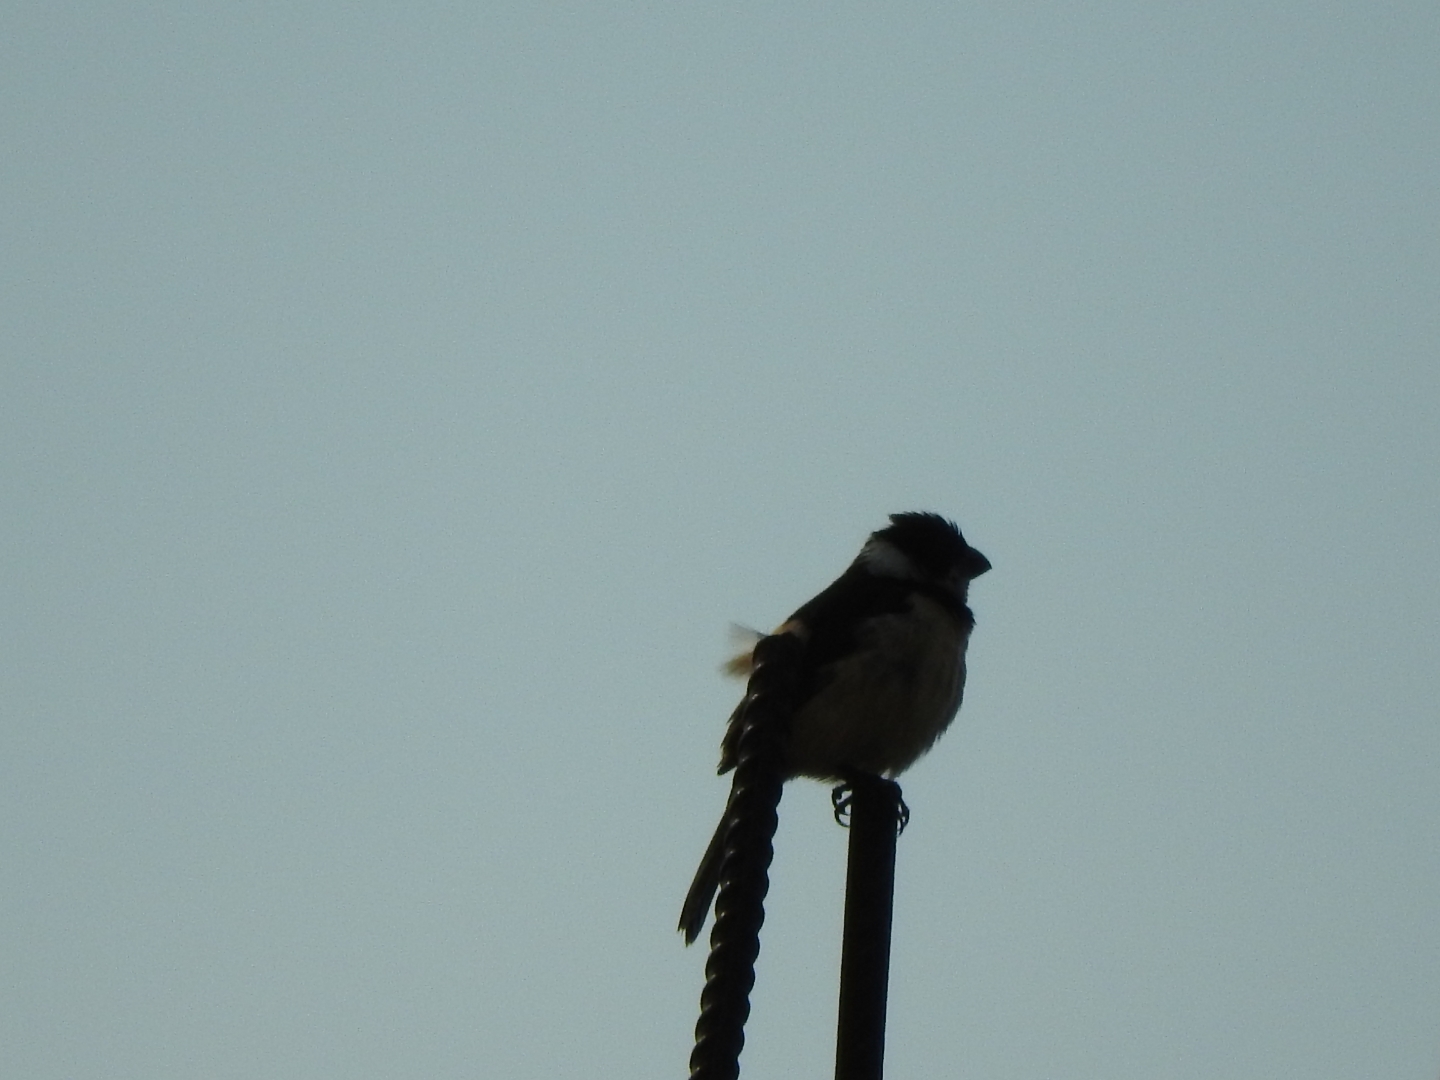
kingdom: Animalia
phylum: Chordata
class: Aves
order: Passeriformes
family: Thraupidae
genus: Sporophila
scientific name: Sporophila torqueola
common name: White-collared seedeater
